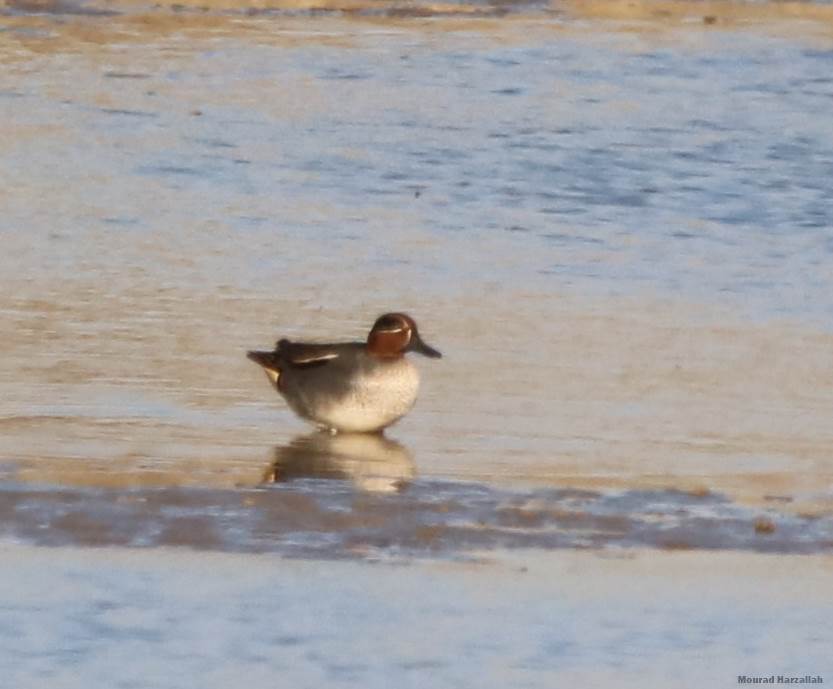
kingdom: Animalia
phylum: Chordata
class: Aves
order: Anseriformes
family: Anatidae
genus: Anas
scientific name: Anas crecca
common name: Eurasian teal
